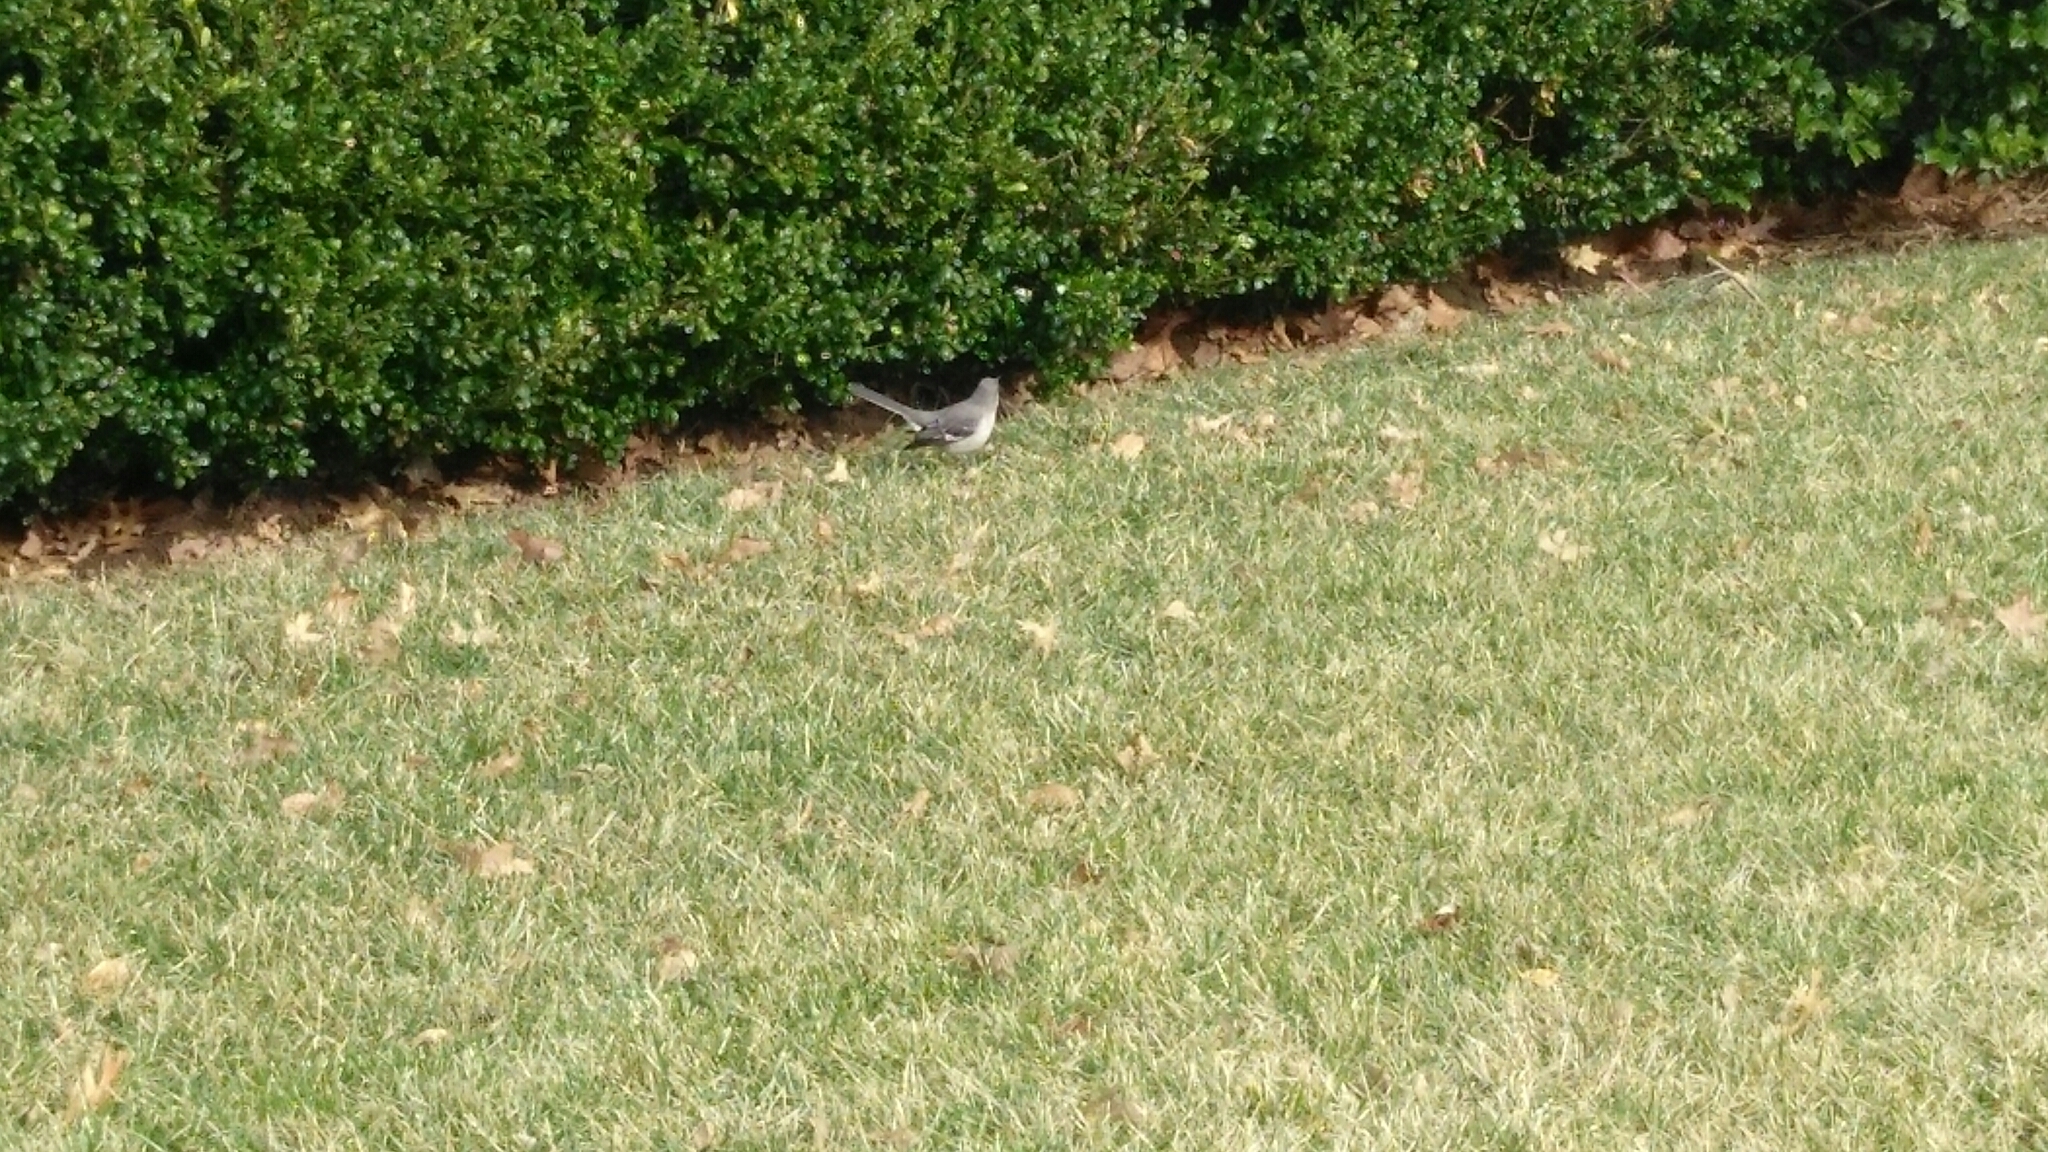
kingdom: Animalia
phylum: Chordata
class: Aves
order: Passeriformes
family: Mimidae
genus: Mimus
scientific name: Mimus polyglottos
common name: Northern mockingbird
